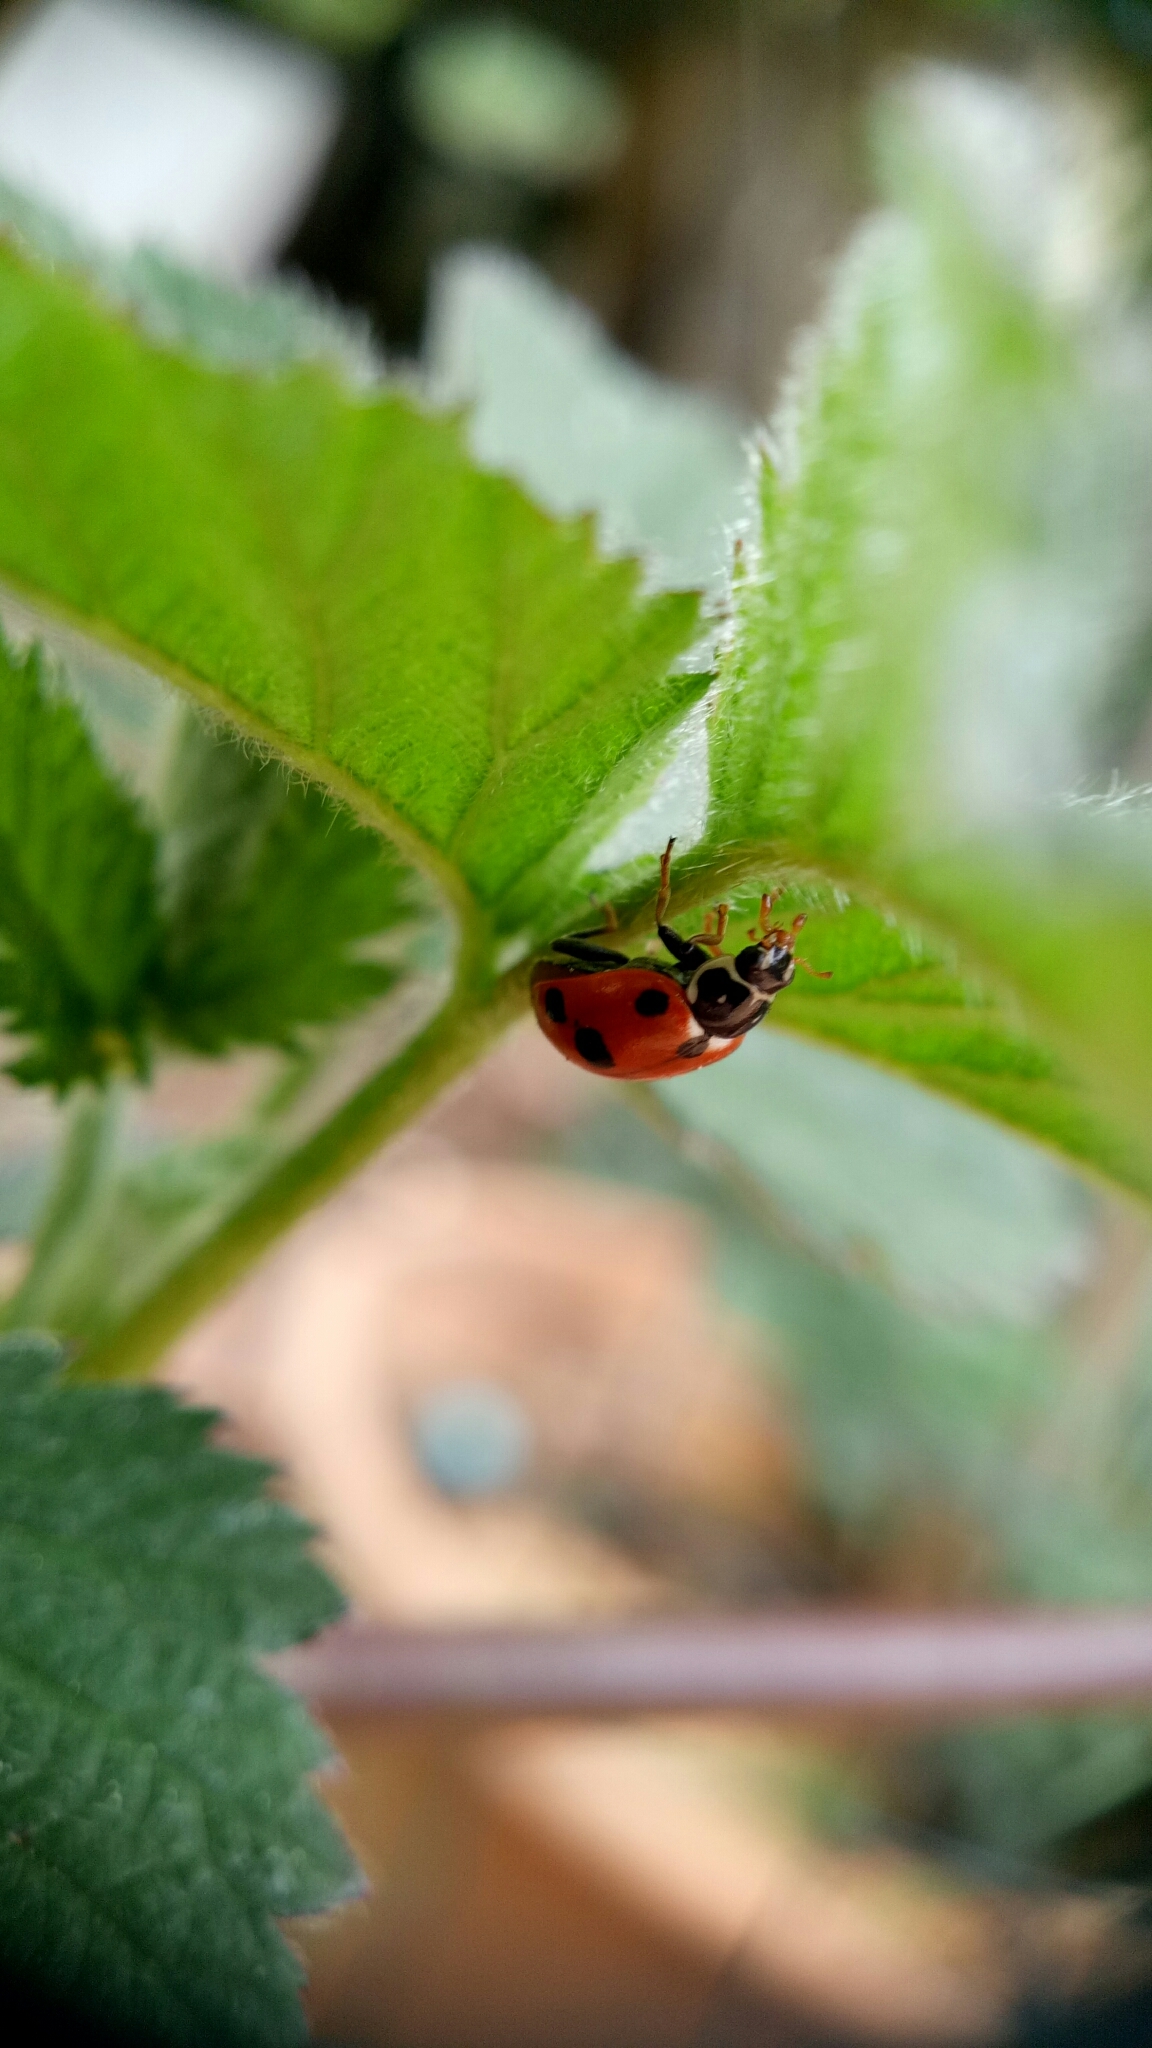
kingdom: Animalia
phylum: Arthropoda
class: Insecta
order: Coleoptera
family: Coccinellidae
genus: Hippodamia
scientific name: Hippodamia variegata
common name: Ladybird beetle
